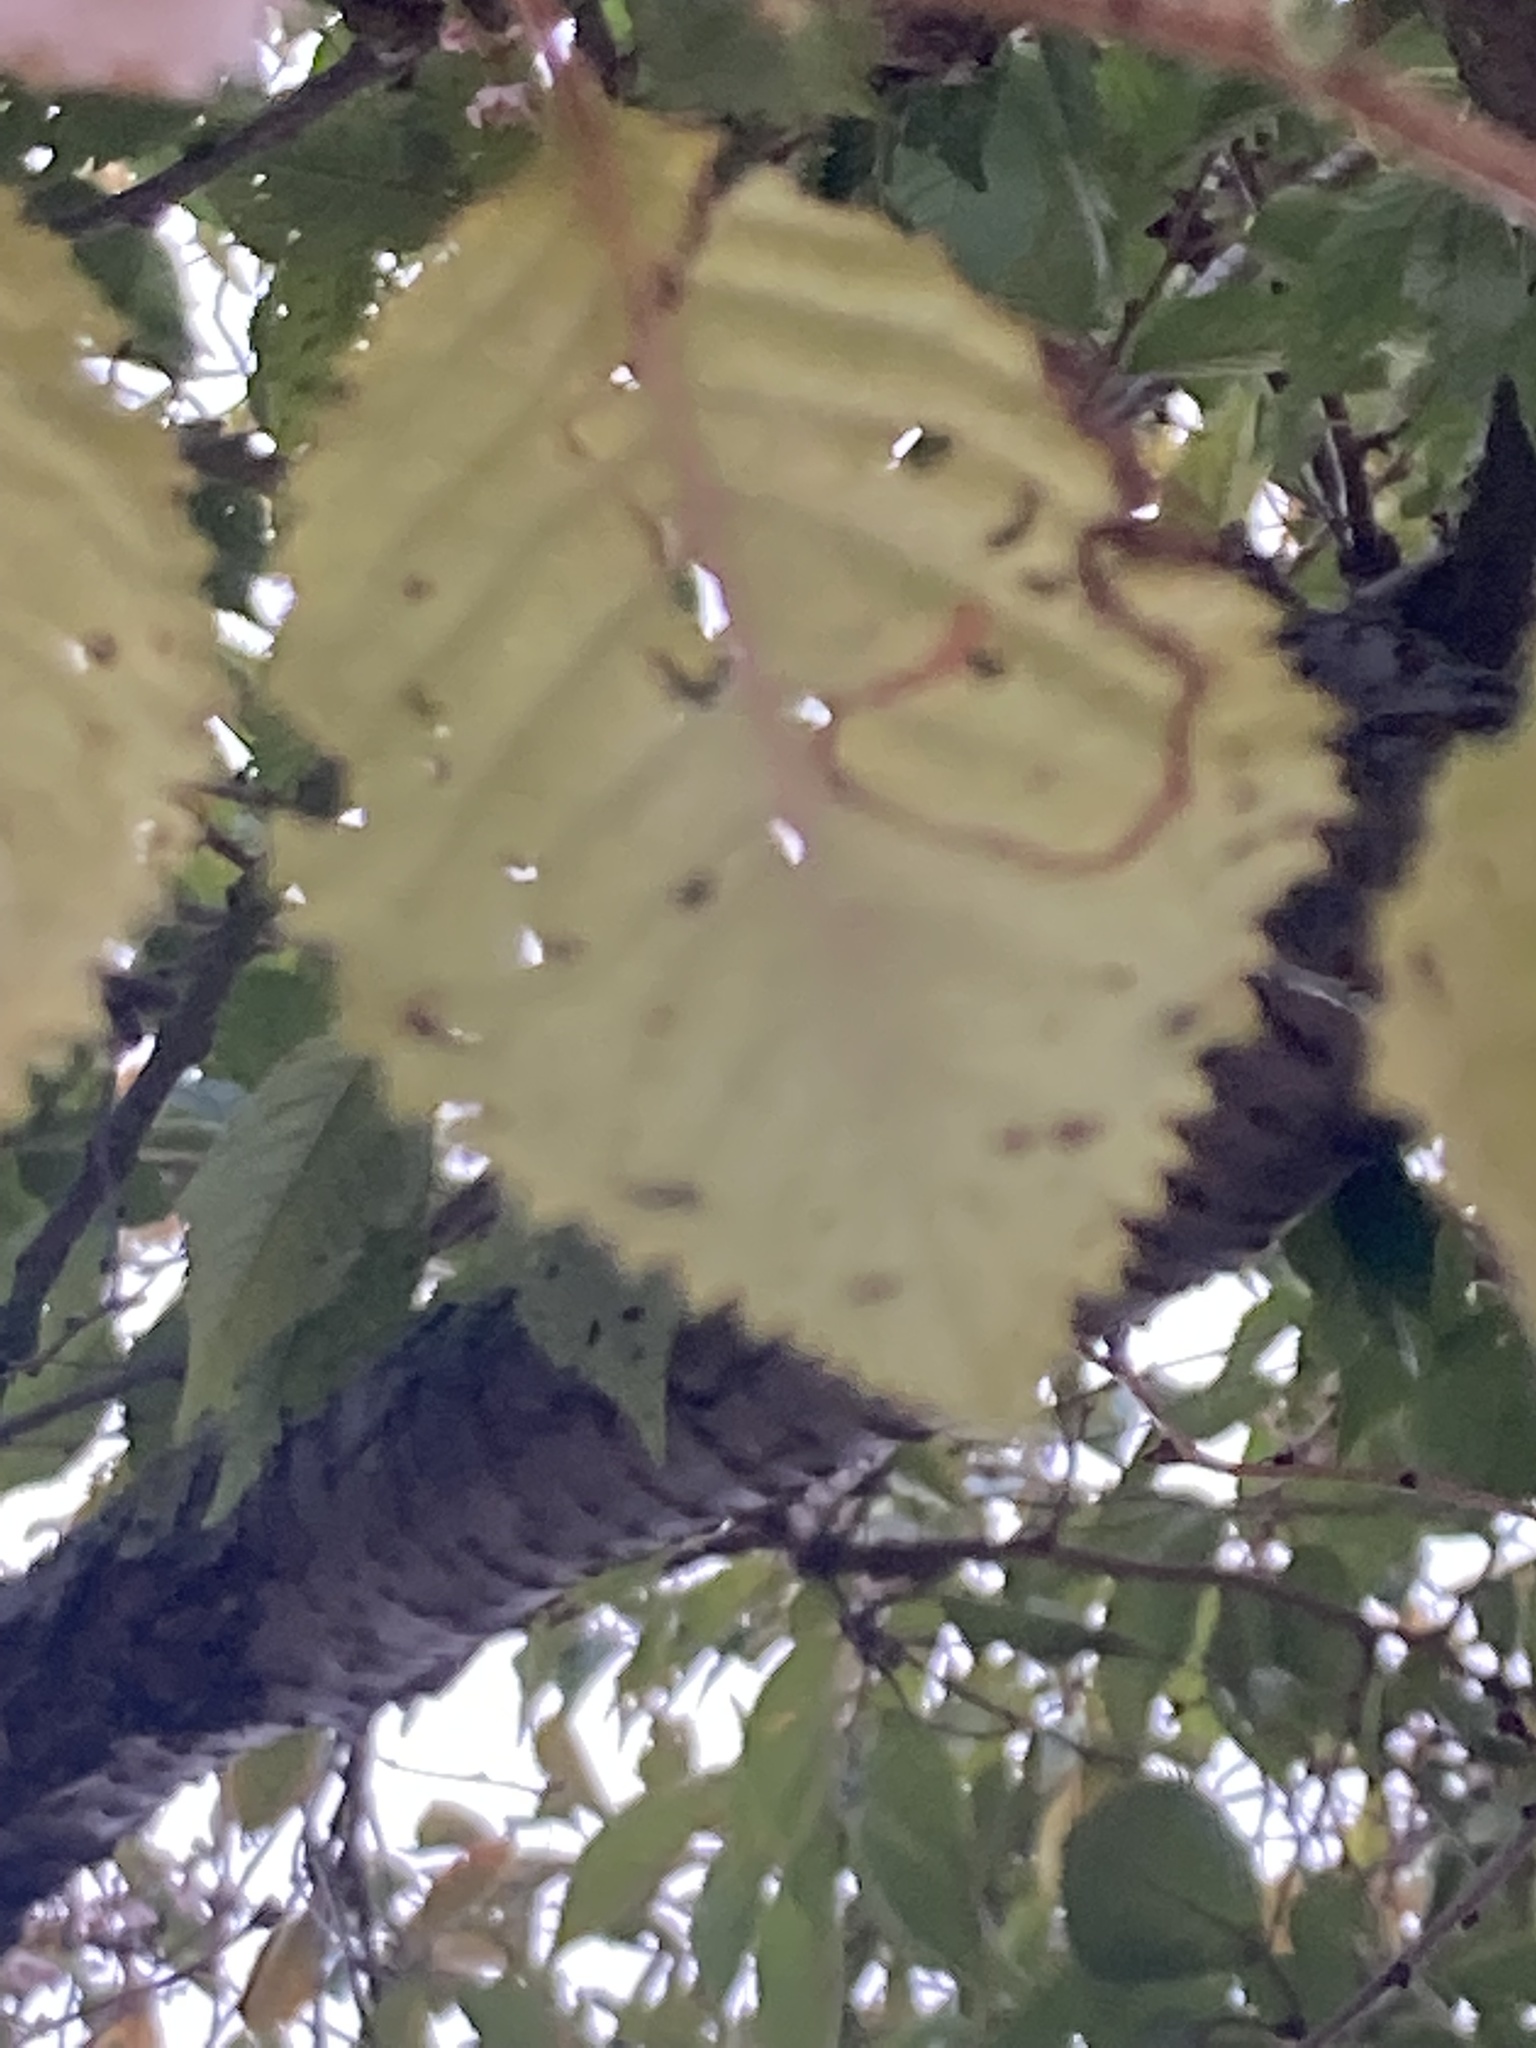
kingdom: Animalia
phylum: Arthropoda
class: Insecta
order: Lepidoptera
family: Lyonetiidae
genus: Lyonetia
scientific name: Lyonetia clerkella
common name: Apple leaf miner
